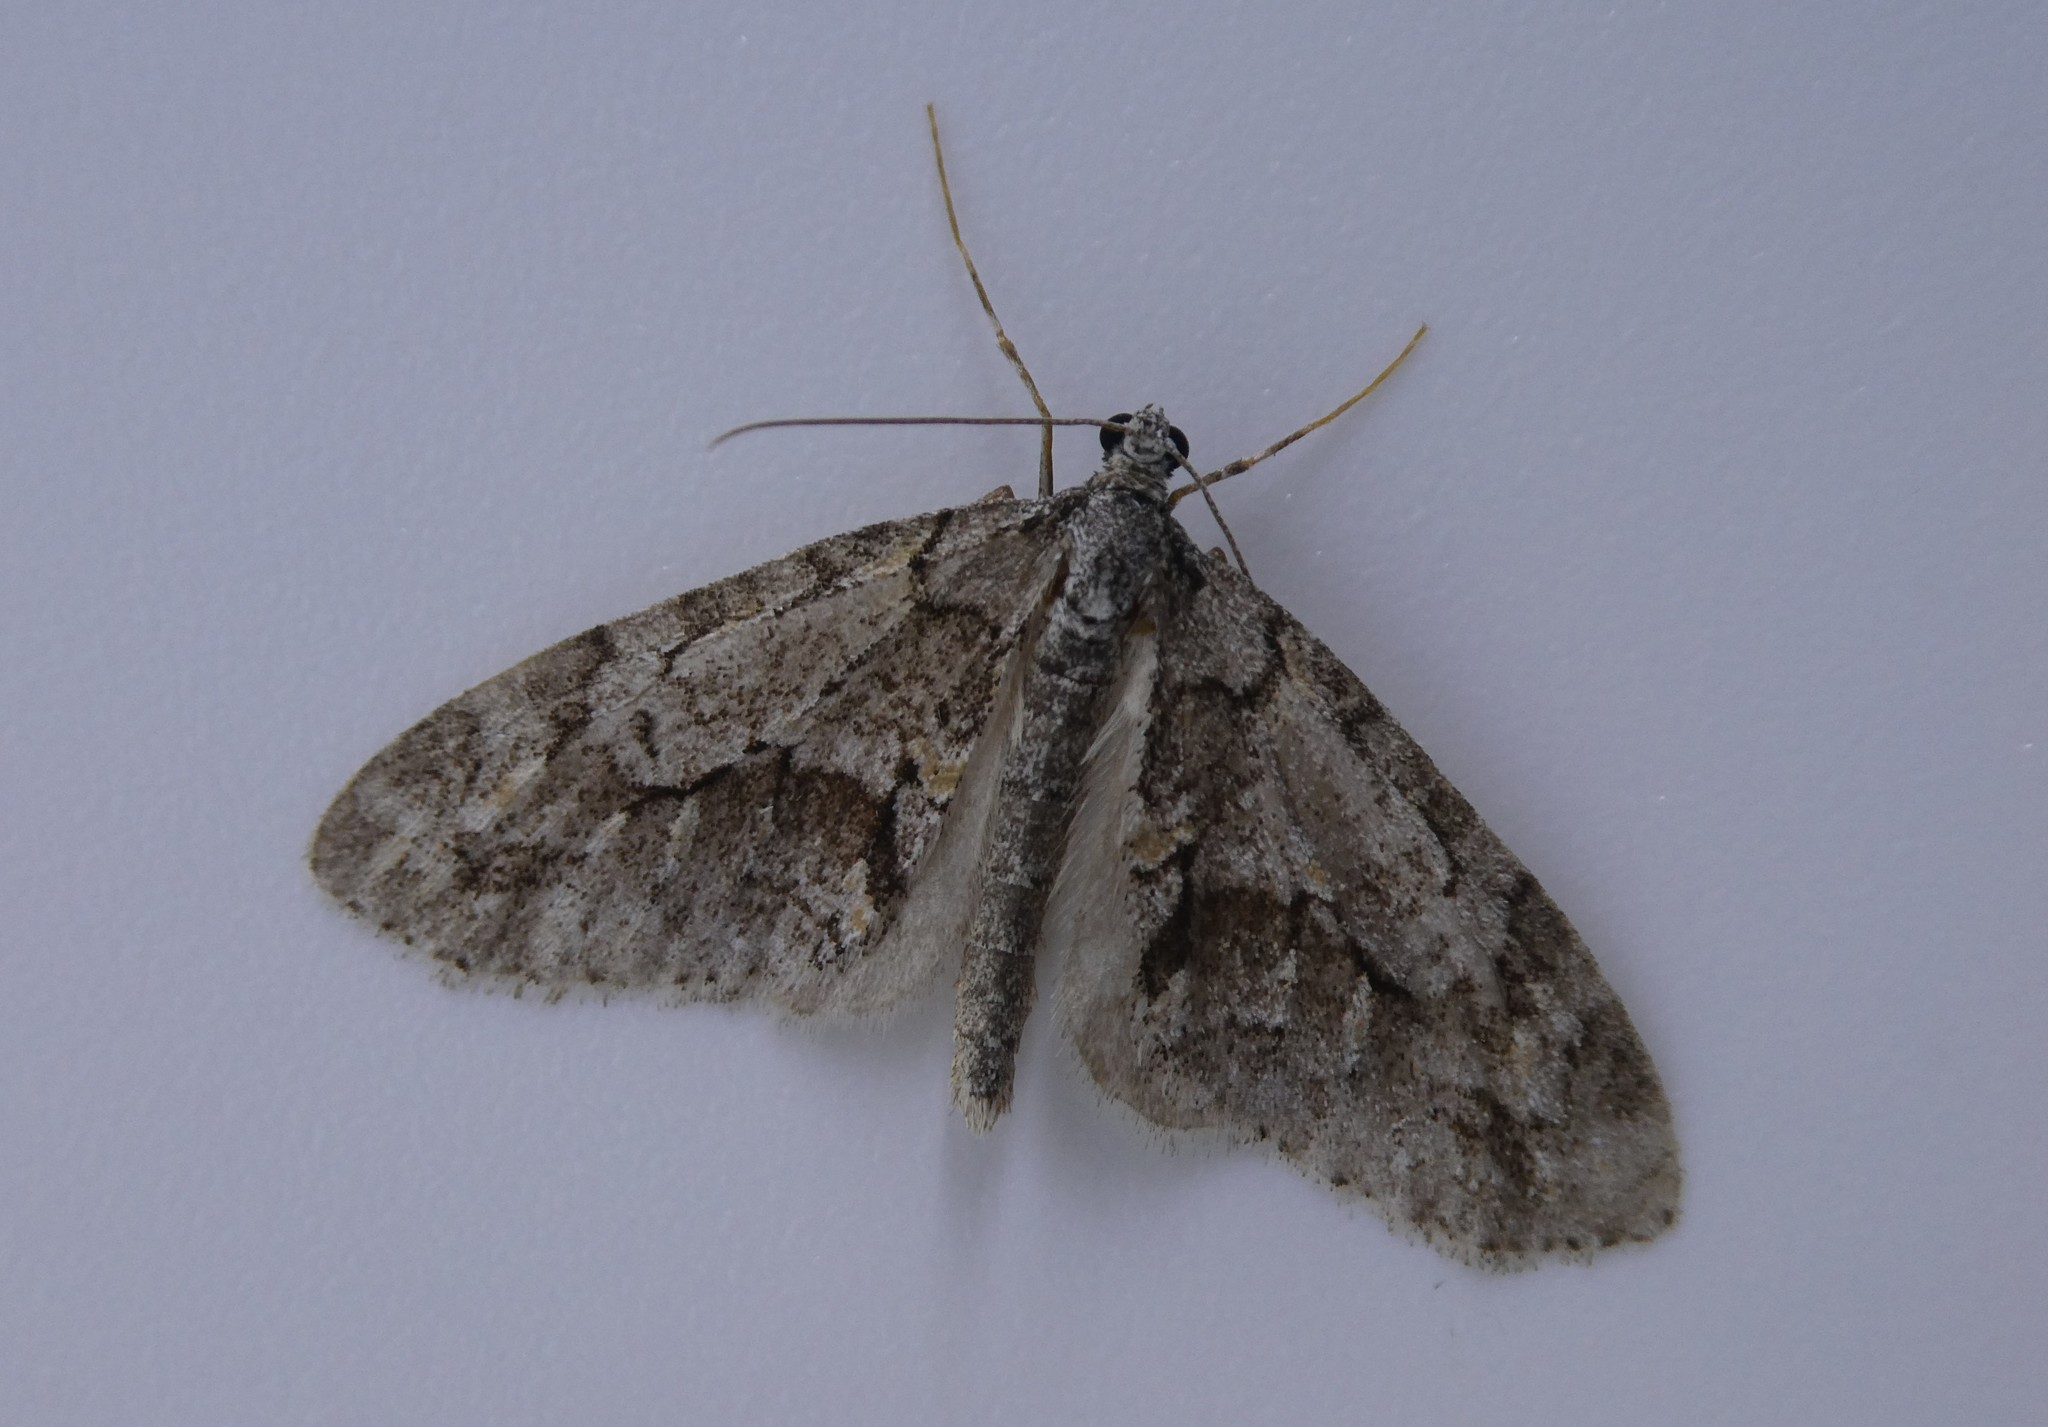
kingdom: Animalia
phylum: Arthropoda
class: Insecta
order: Lepidoptera
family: Geometridae
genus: Cladara
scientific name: Cladara limitaria
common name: Mottled gray carpet
